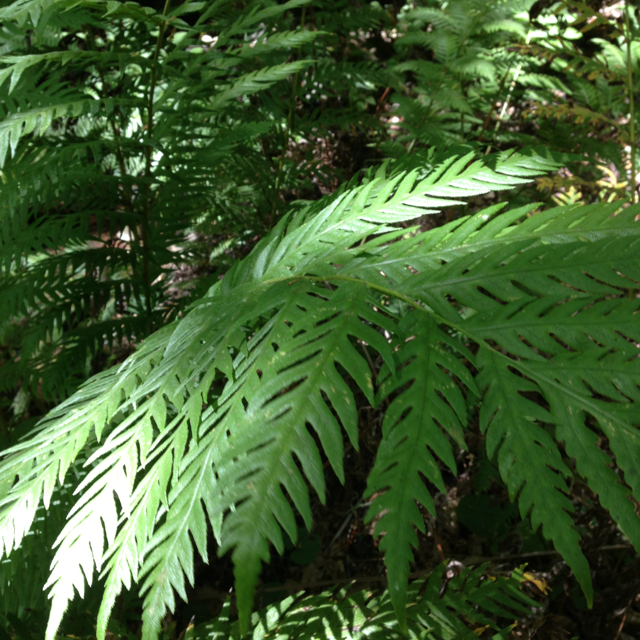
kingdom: Plantae
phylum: Tracheophyta
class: Polypodiopsida
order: Polypodiales
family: Blechnaceae
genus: Woodwardia
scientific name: Woodwardia fimbriata
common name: Giant chain fern
